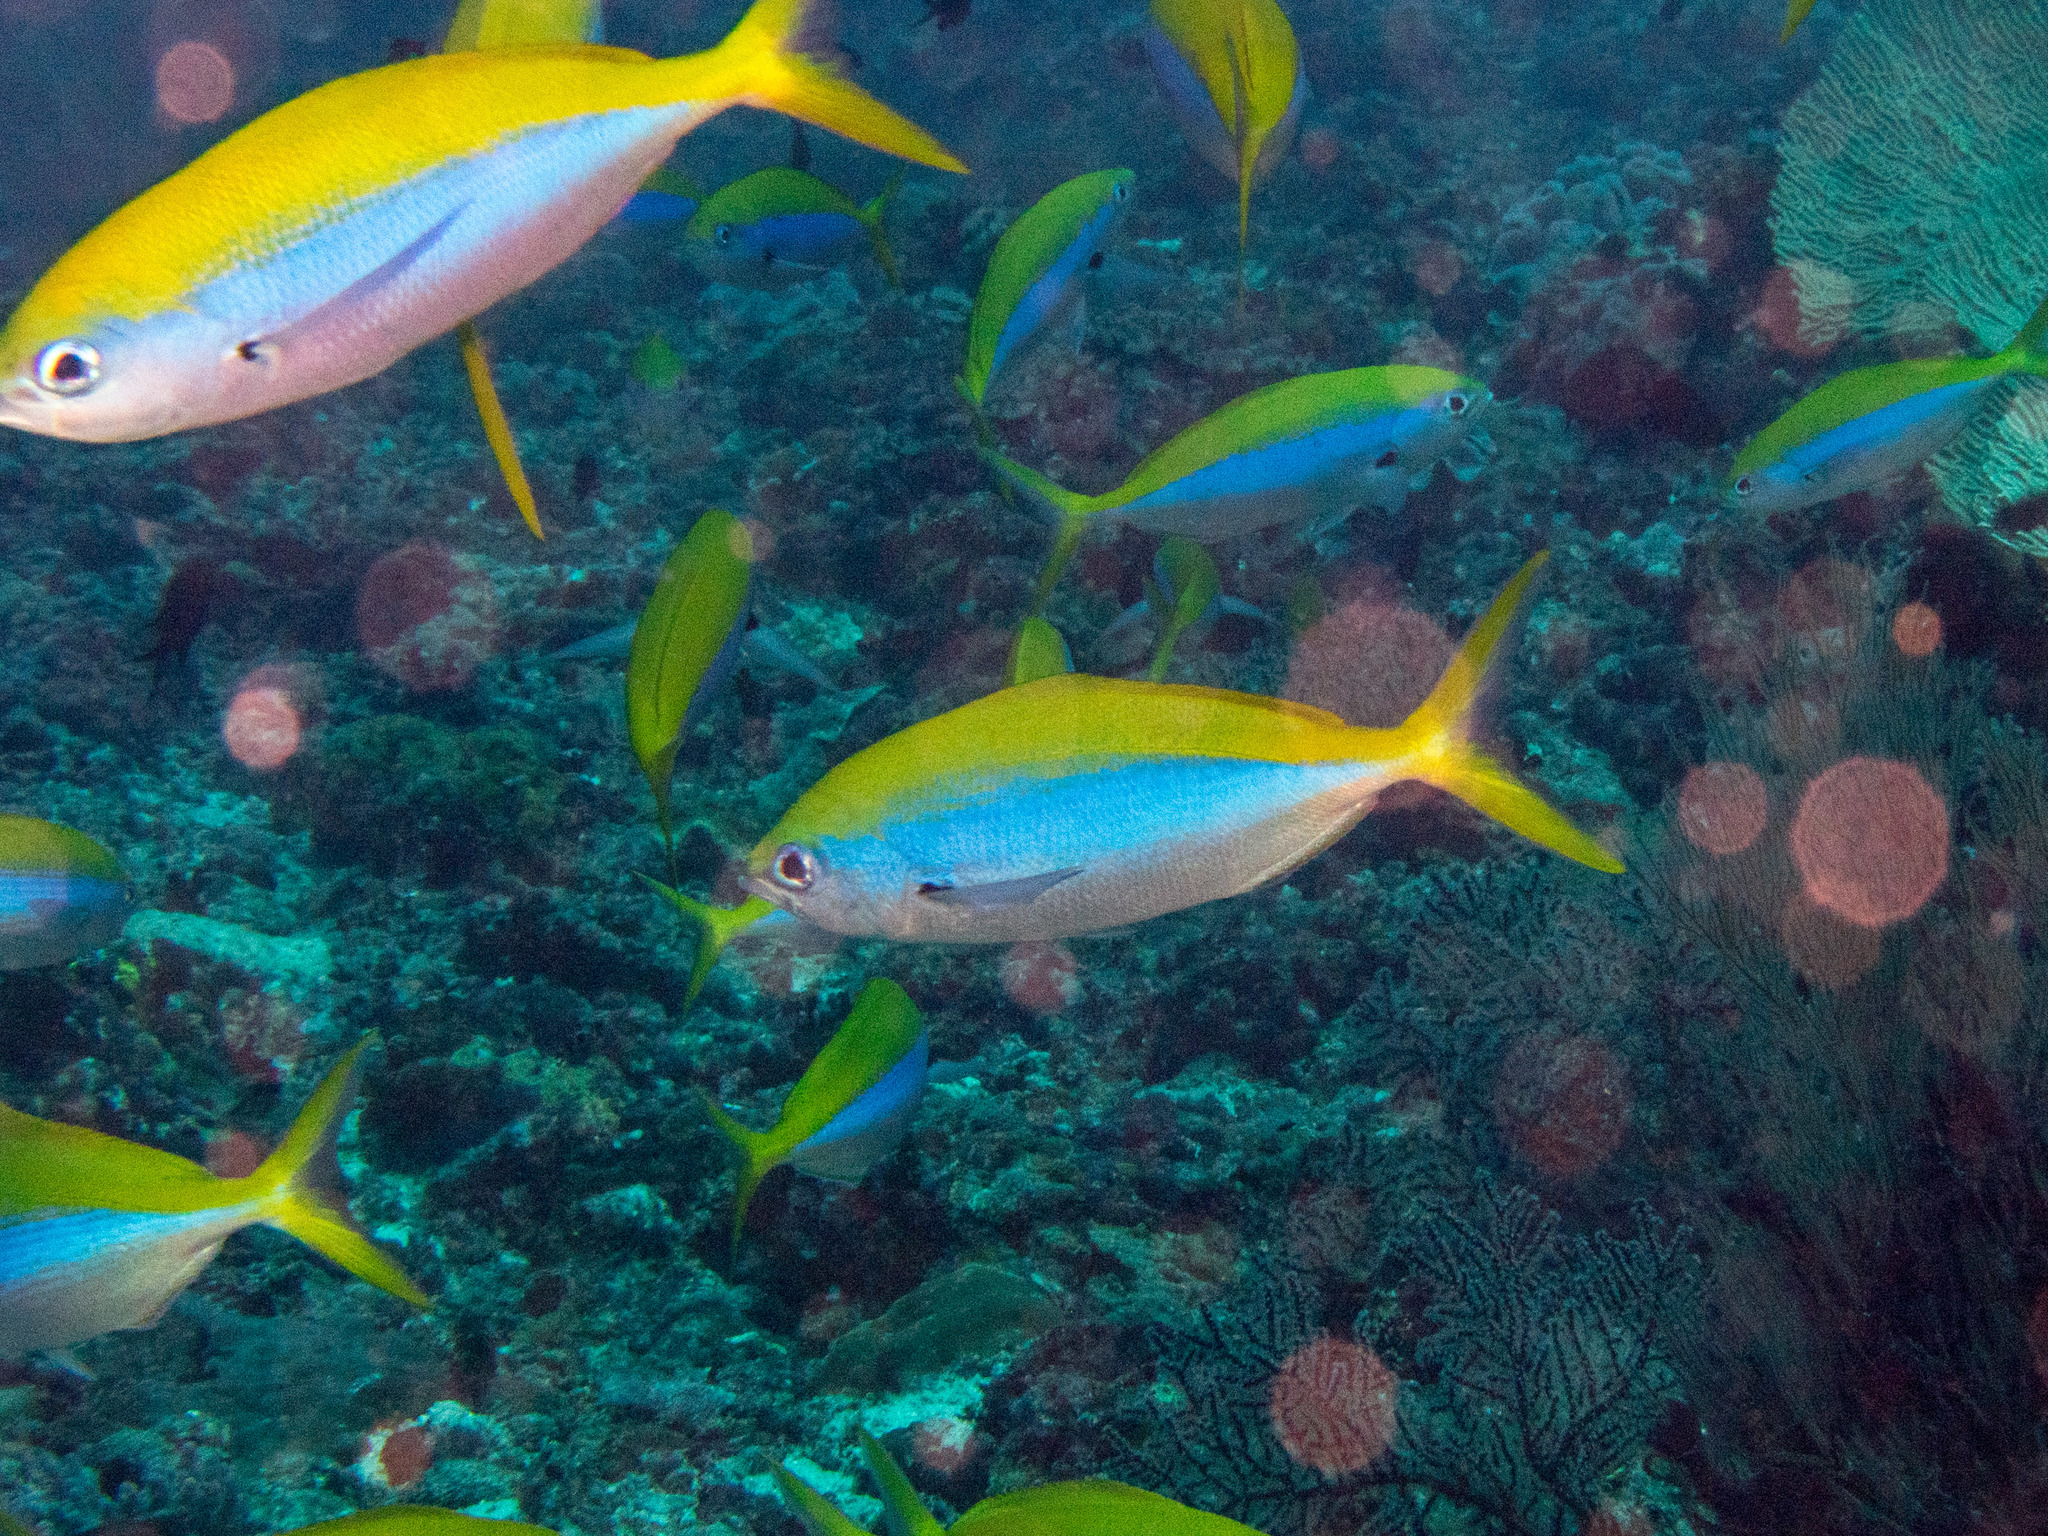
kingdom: Animalia
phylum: Chordata
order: Perciformes
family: Caesionidae
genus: Caesio
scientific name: Caesio xanthonota
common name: Yellowback fusilier
